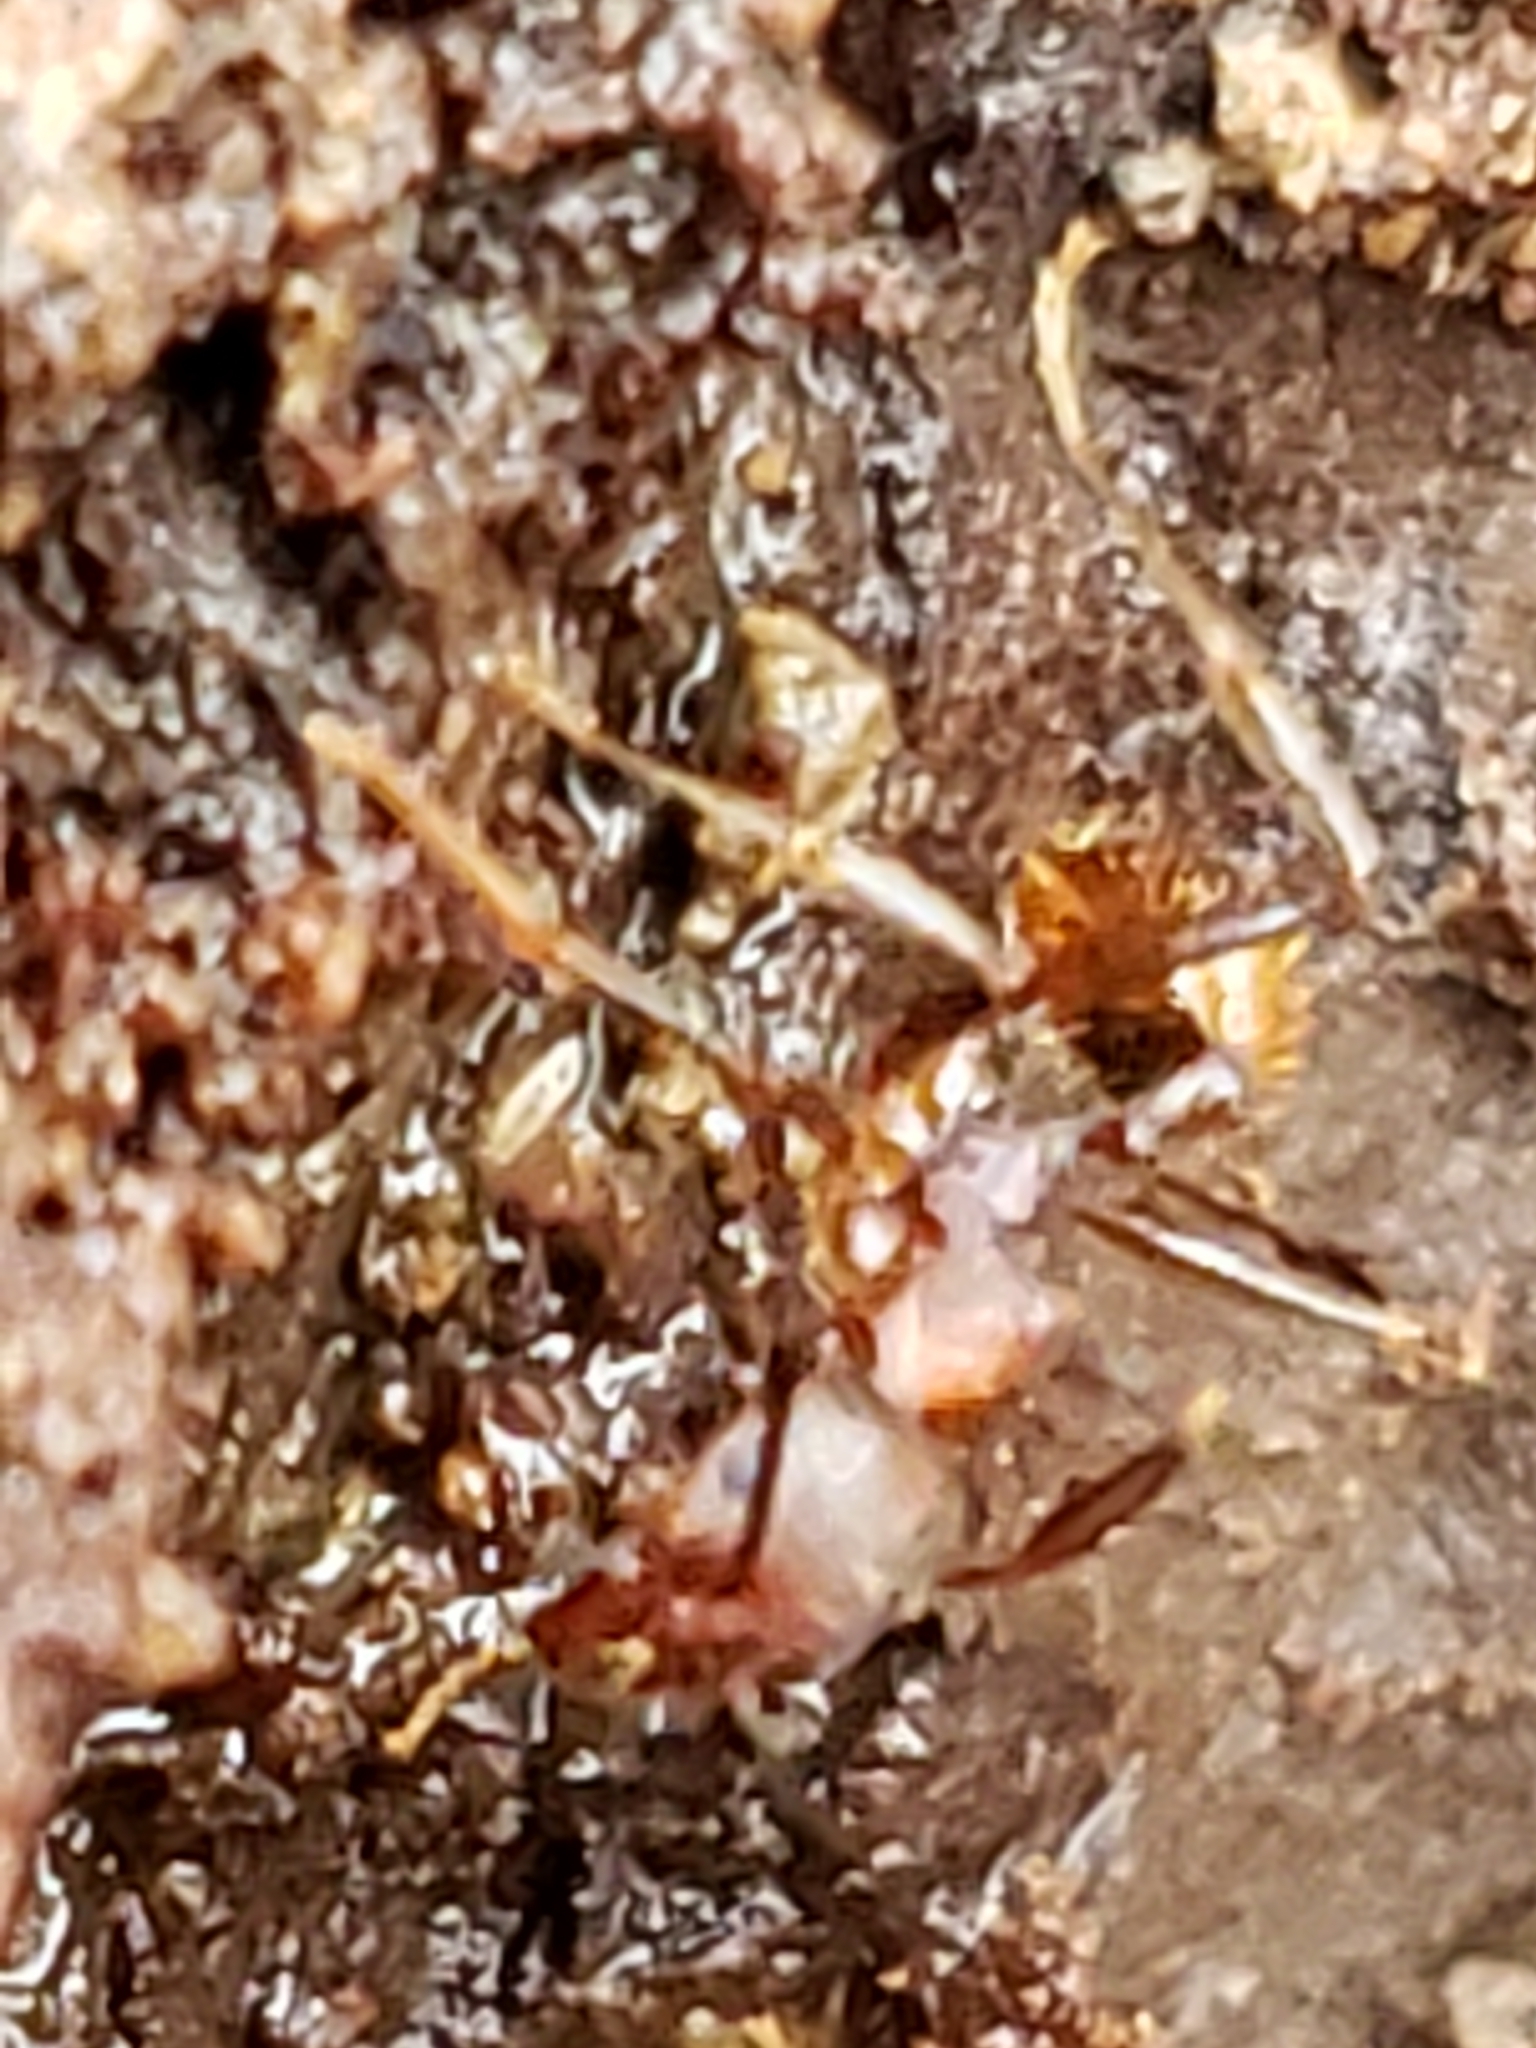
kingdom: Animalia
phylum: Arthropoda
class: Insecta
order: Hymenoptera
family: Formicidae
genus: Aphaenogaster
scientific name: Aphaenogaster fulva
